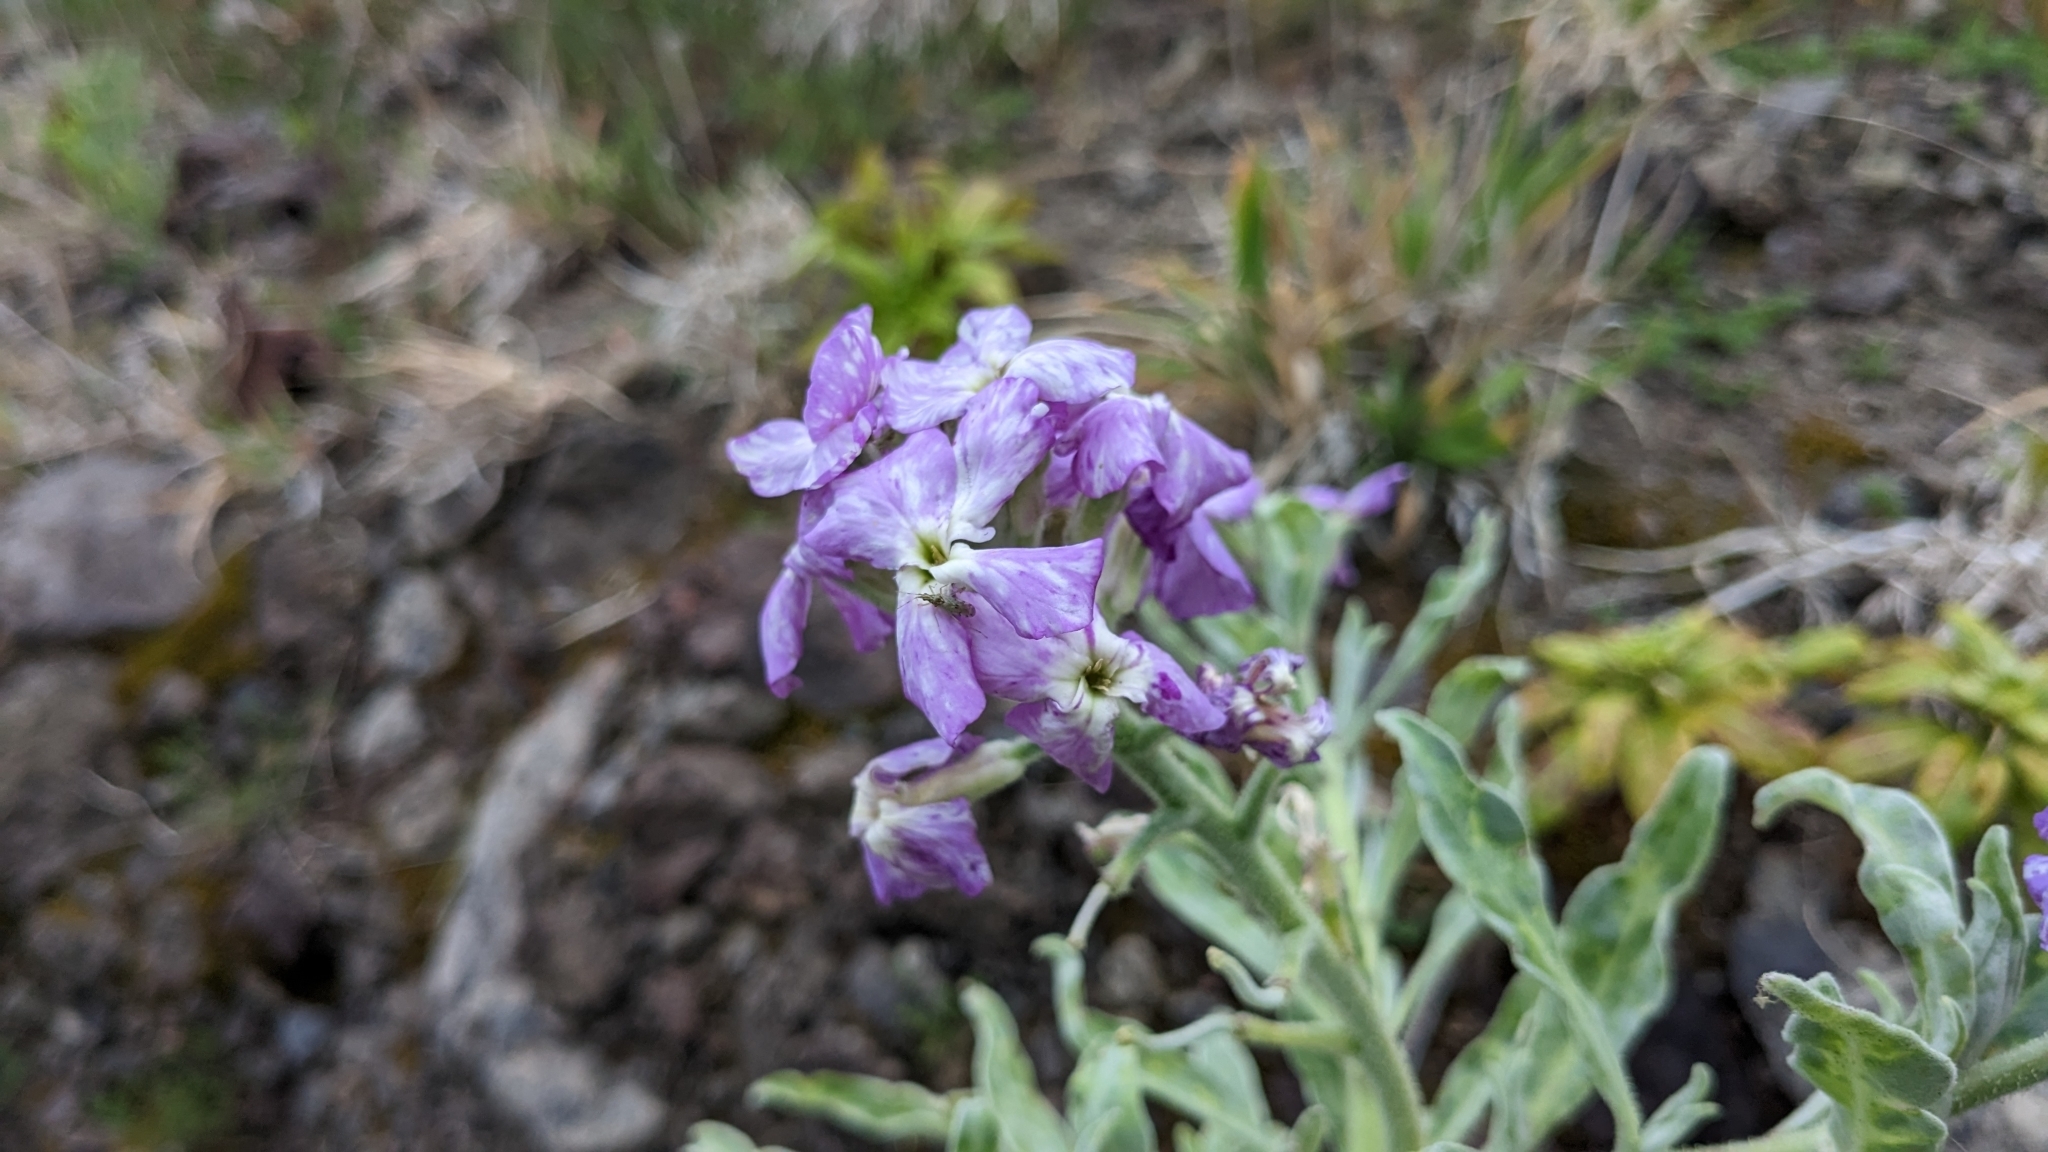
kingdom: Plantae
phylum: Tracheophyta
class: Magnoliopsida
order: Brassicales
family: Brassicaceae
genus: Matthiola
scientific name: Matthiola maderensis
